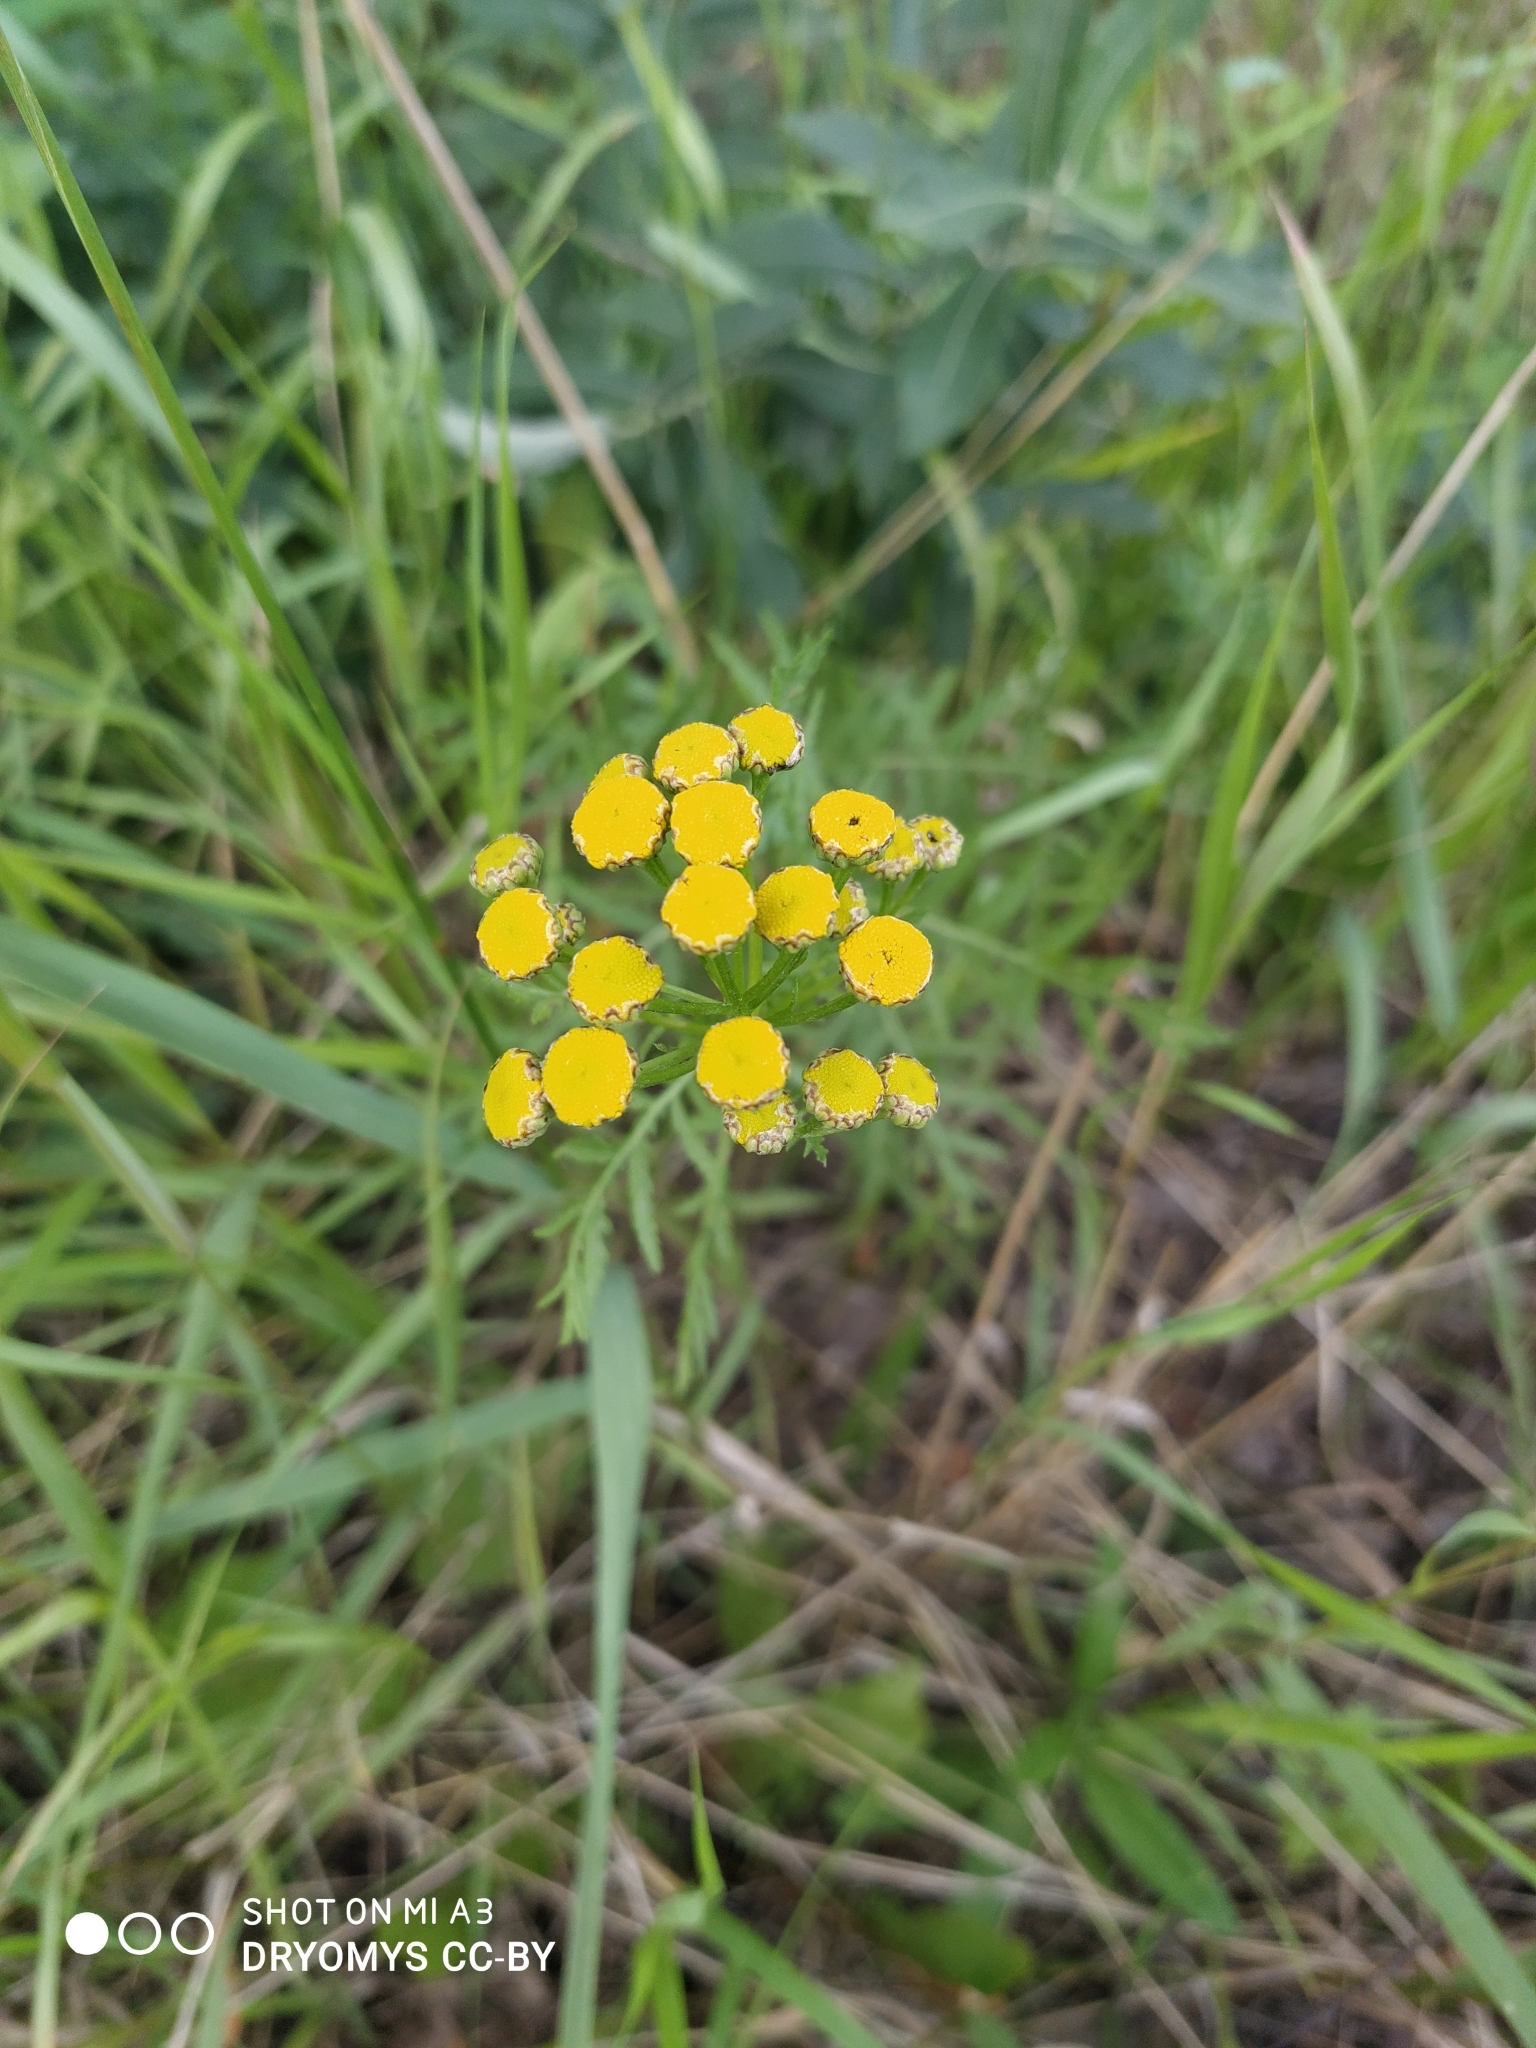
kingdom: Plantae
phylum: Tracheophyta
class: Magnoliopsida
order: Asterales
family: Asteraceae
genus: Tanacetum
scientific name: Tanacetum vulgare
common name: Common tansy
